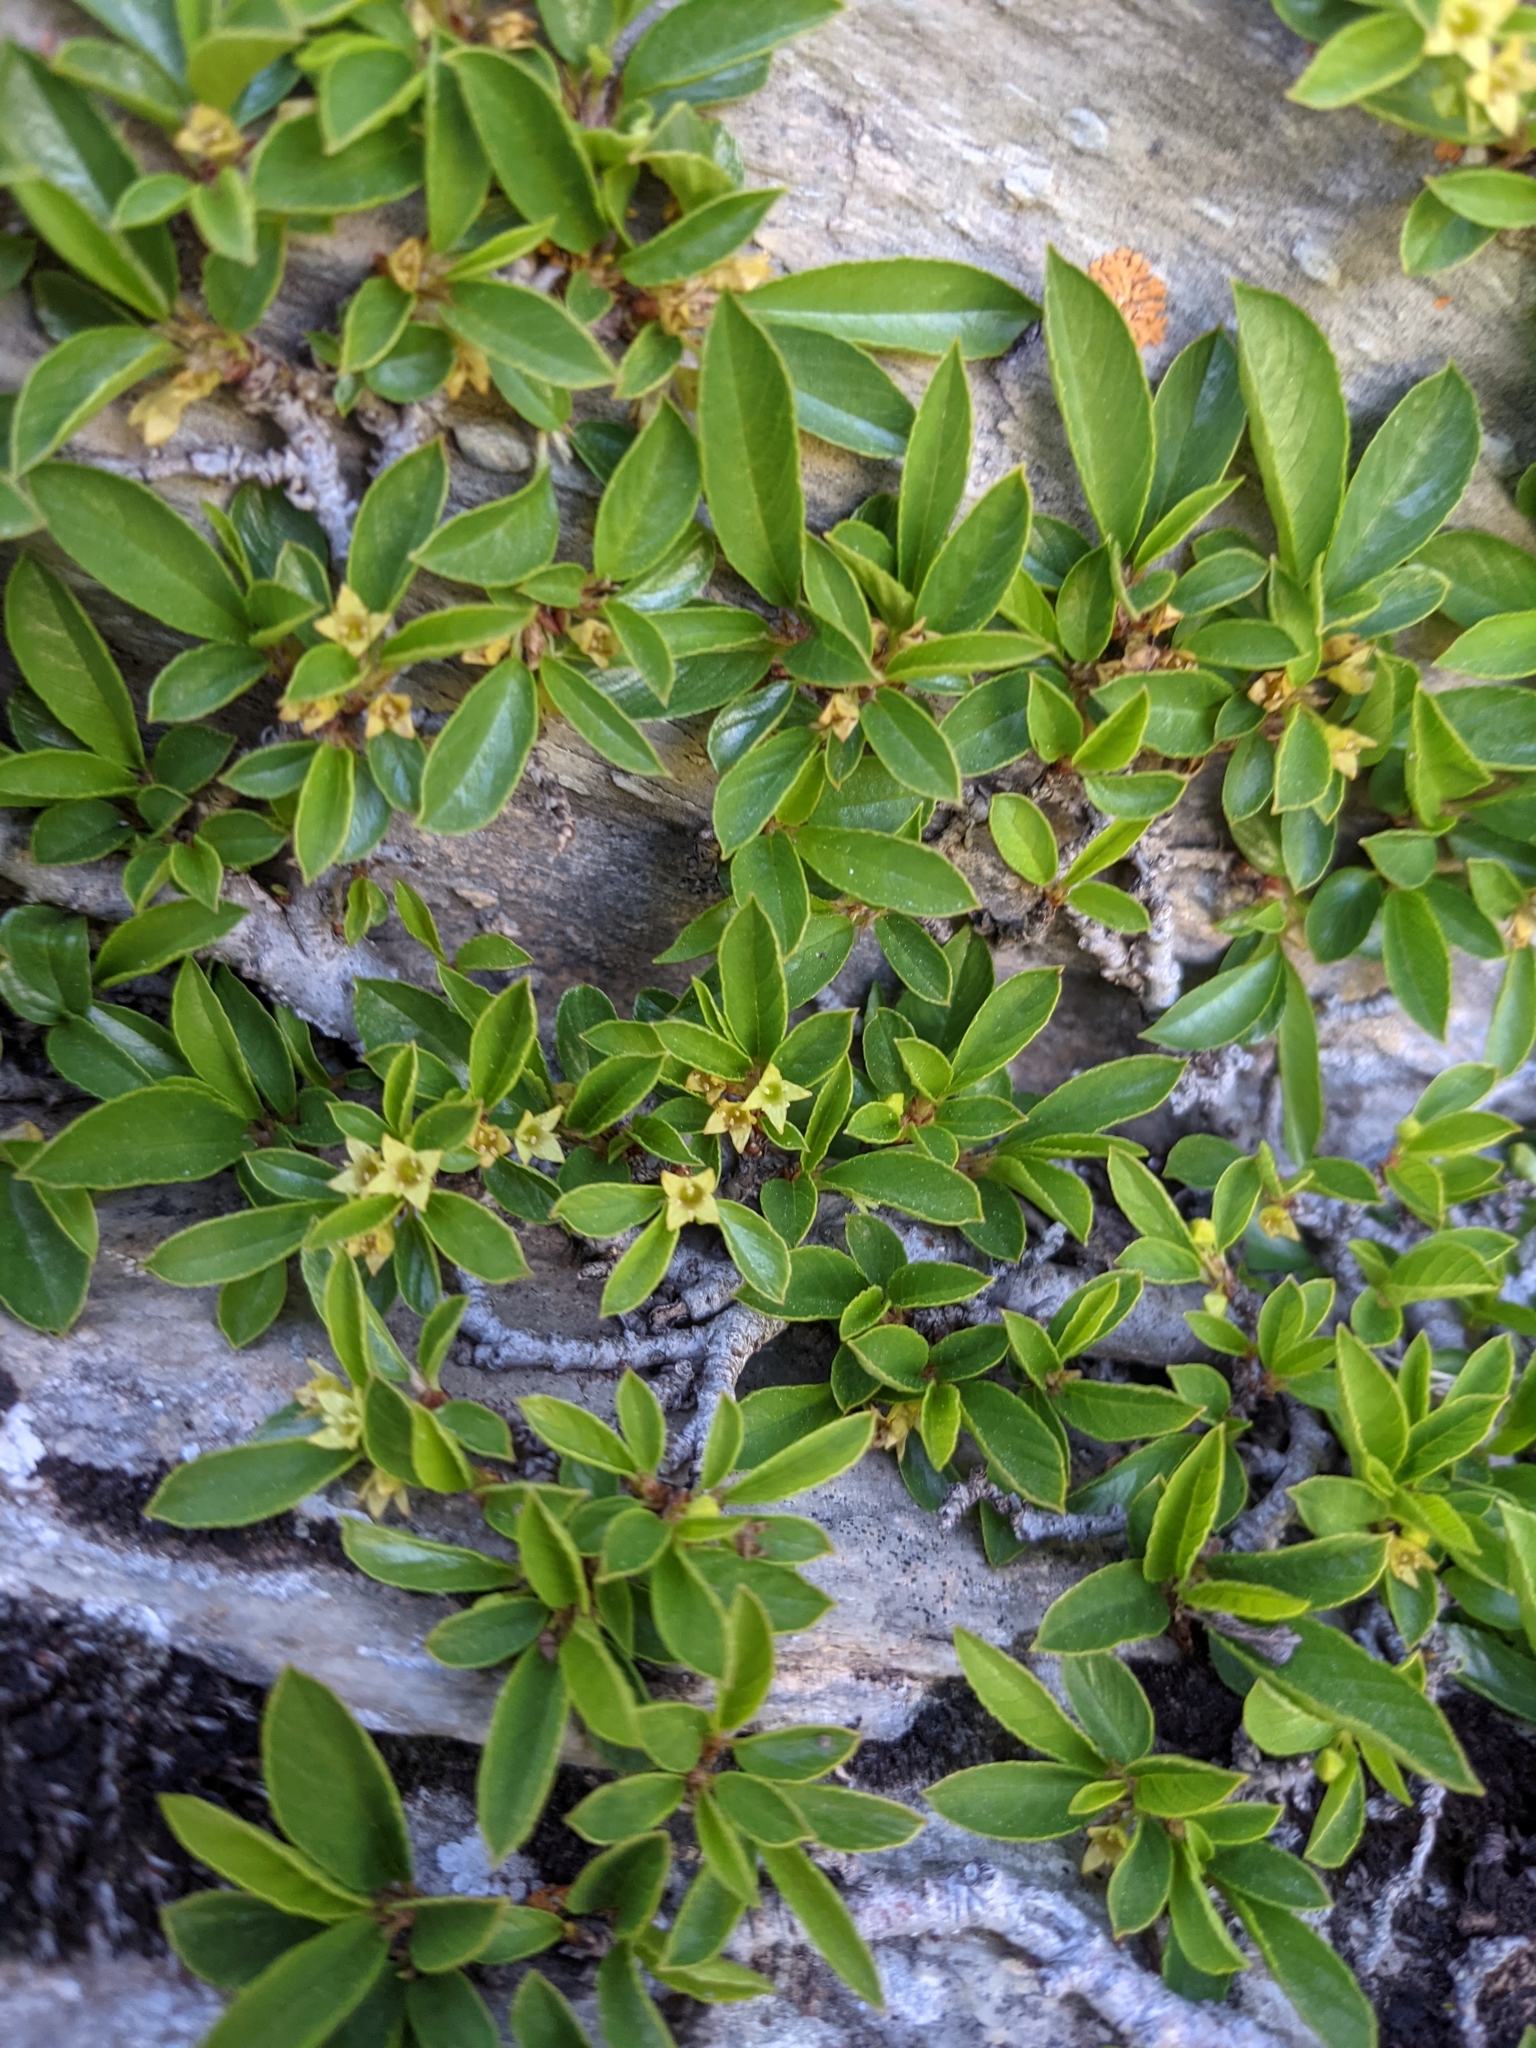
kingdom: Plantae
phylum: Tracheophyta
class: Magnoliopsida
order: Rosales
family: Rhamnaceae
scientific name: Rhamnaceae
